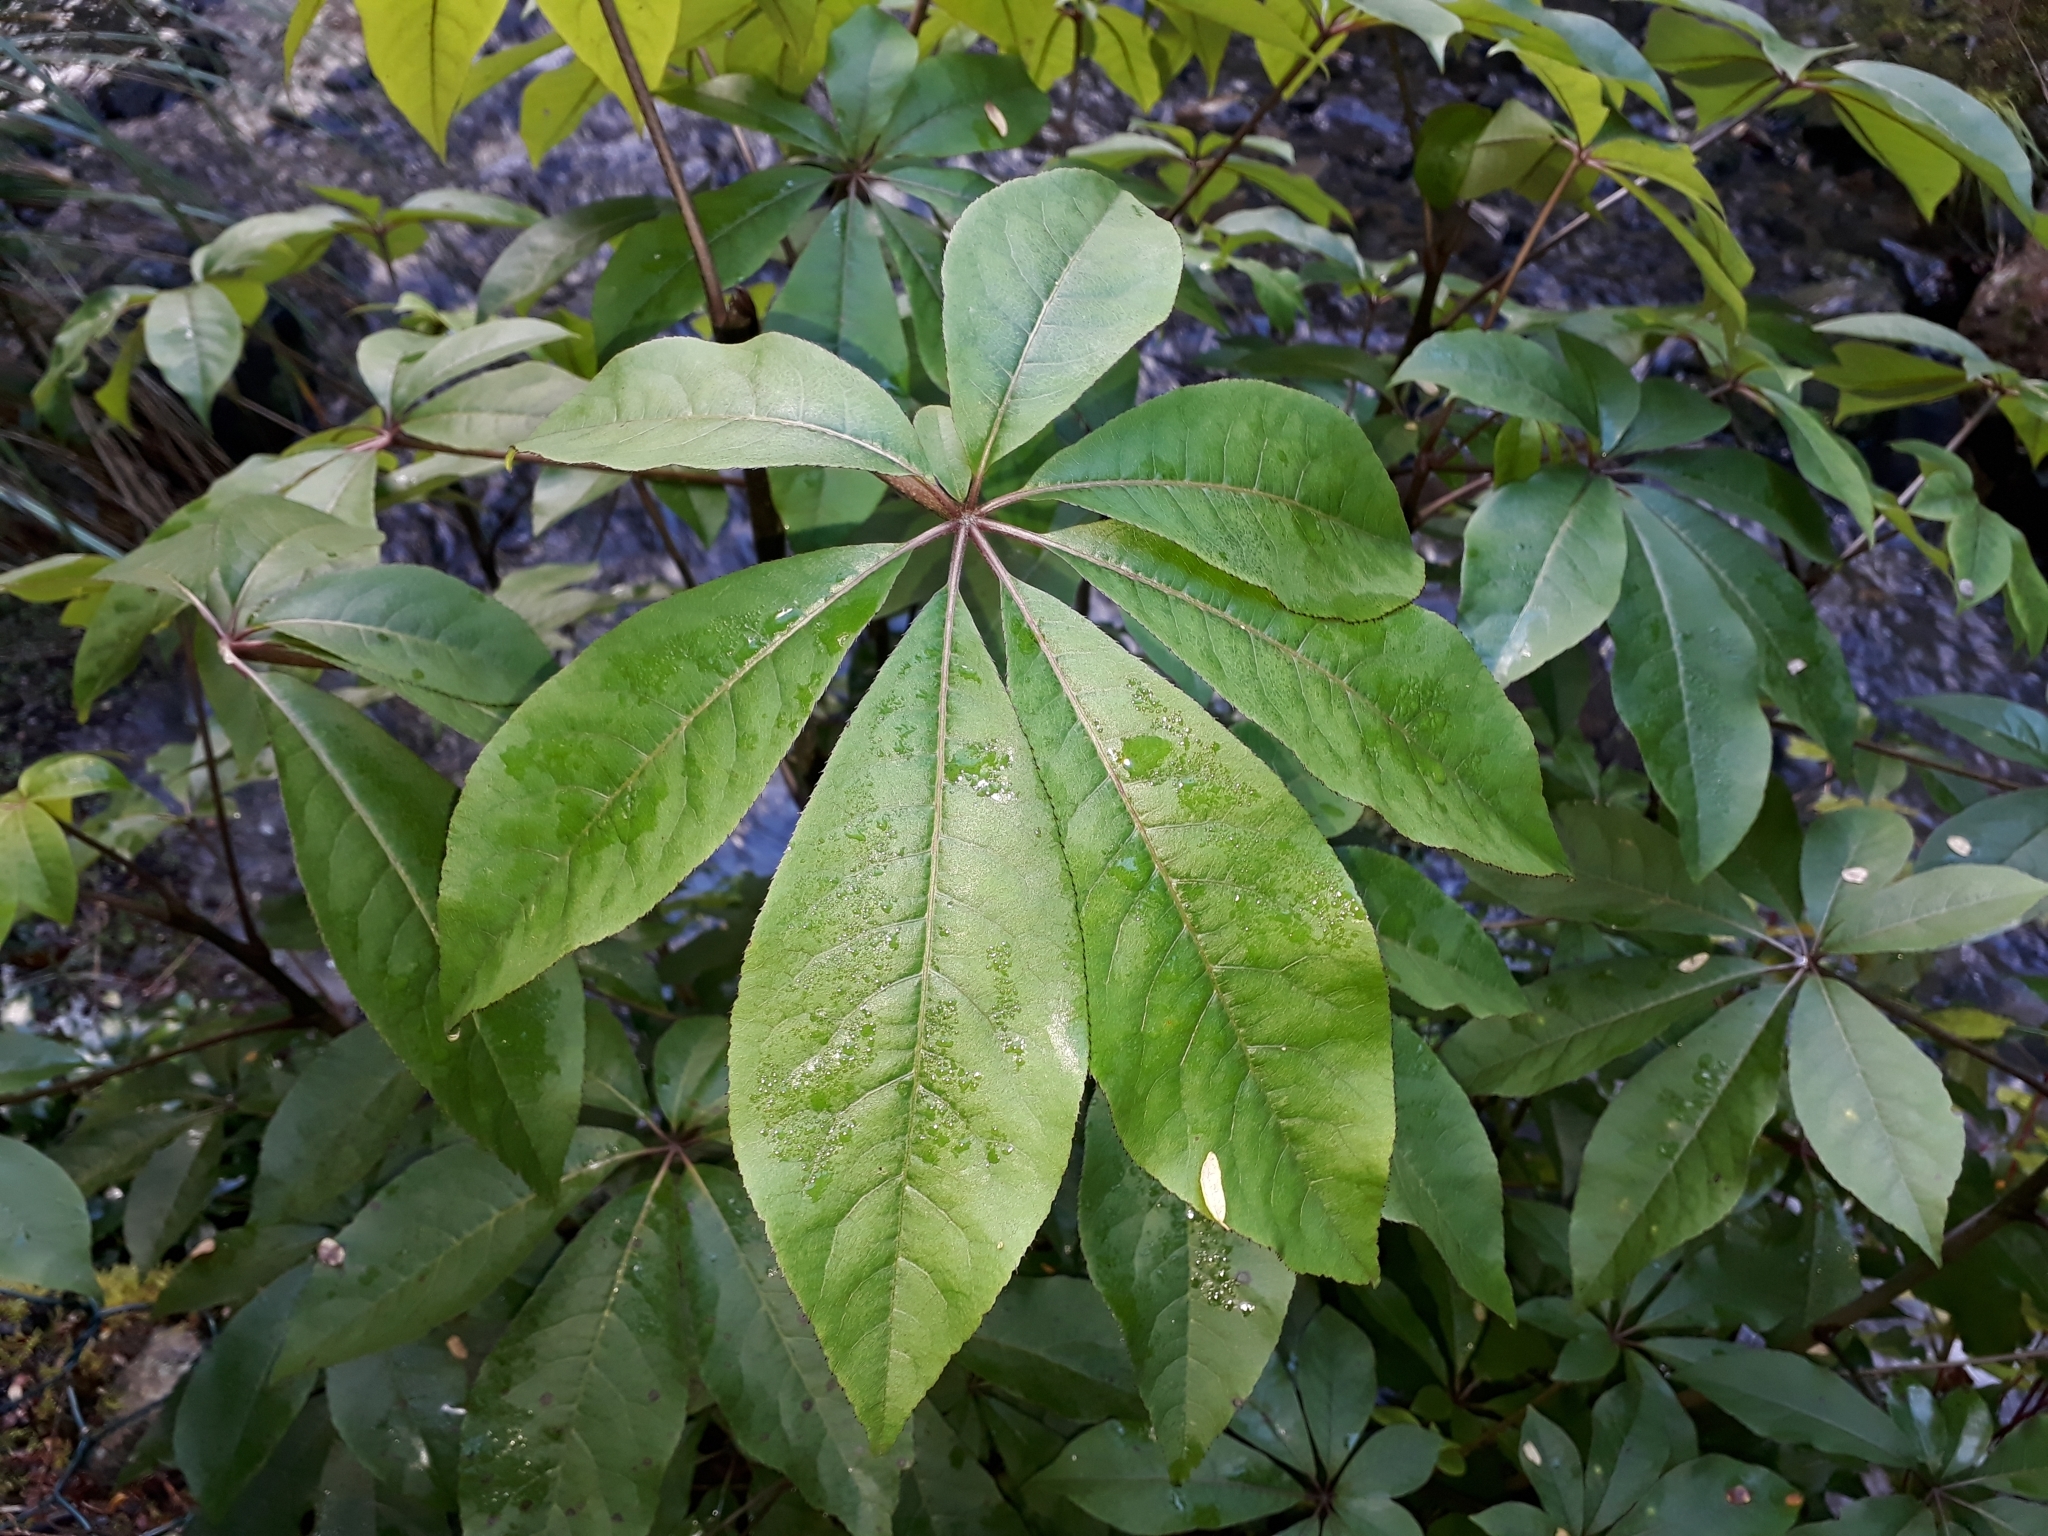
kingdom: Plantae
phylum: Tracheophyta
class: Magnoliopsida
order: Apiales
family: Araliaceae
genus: Schefflera
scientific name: Schefflera digitata
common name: Pate
